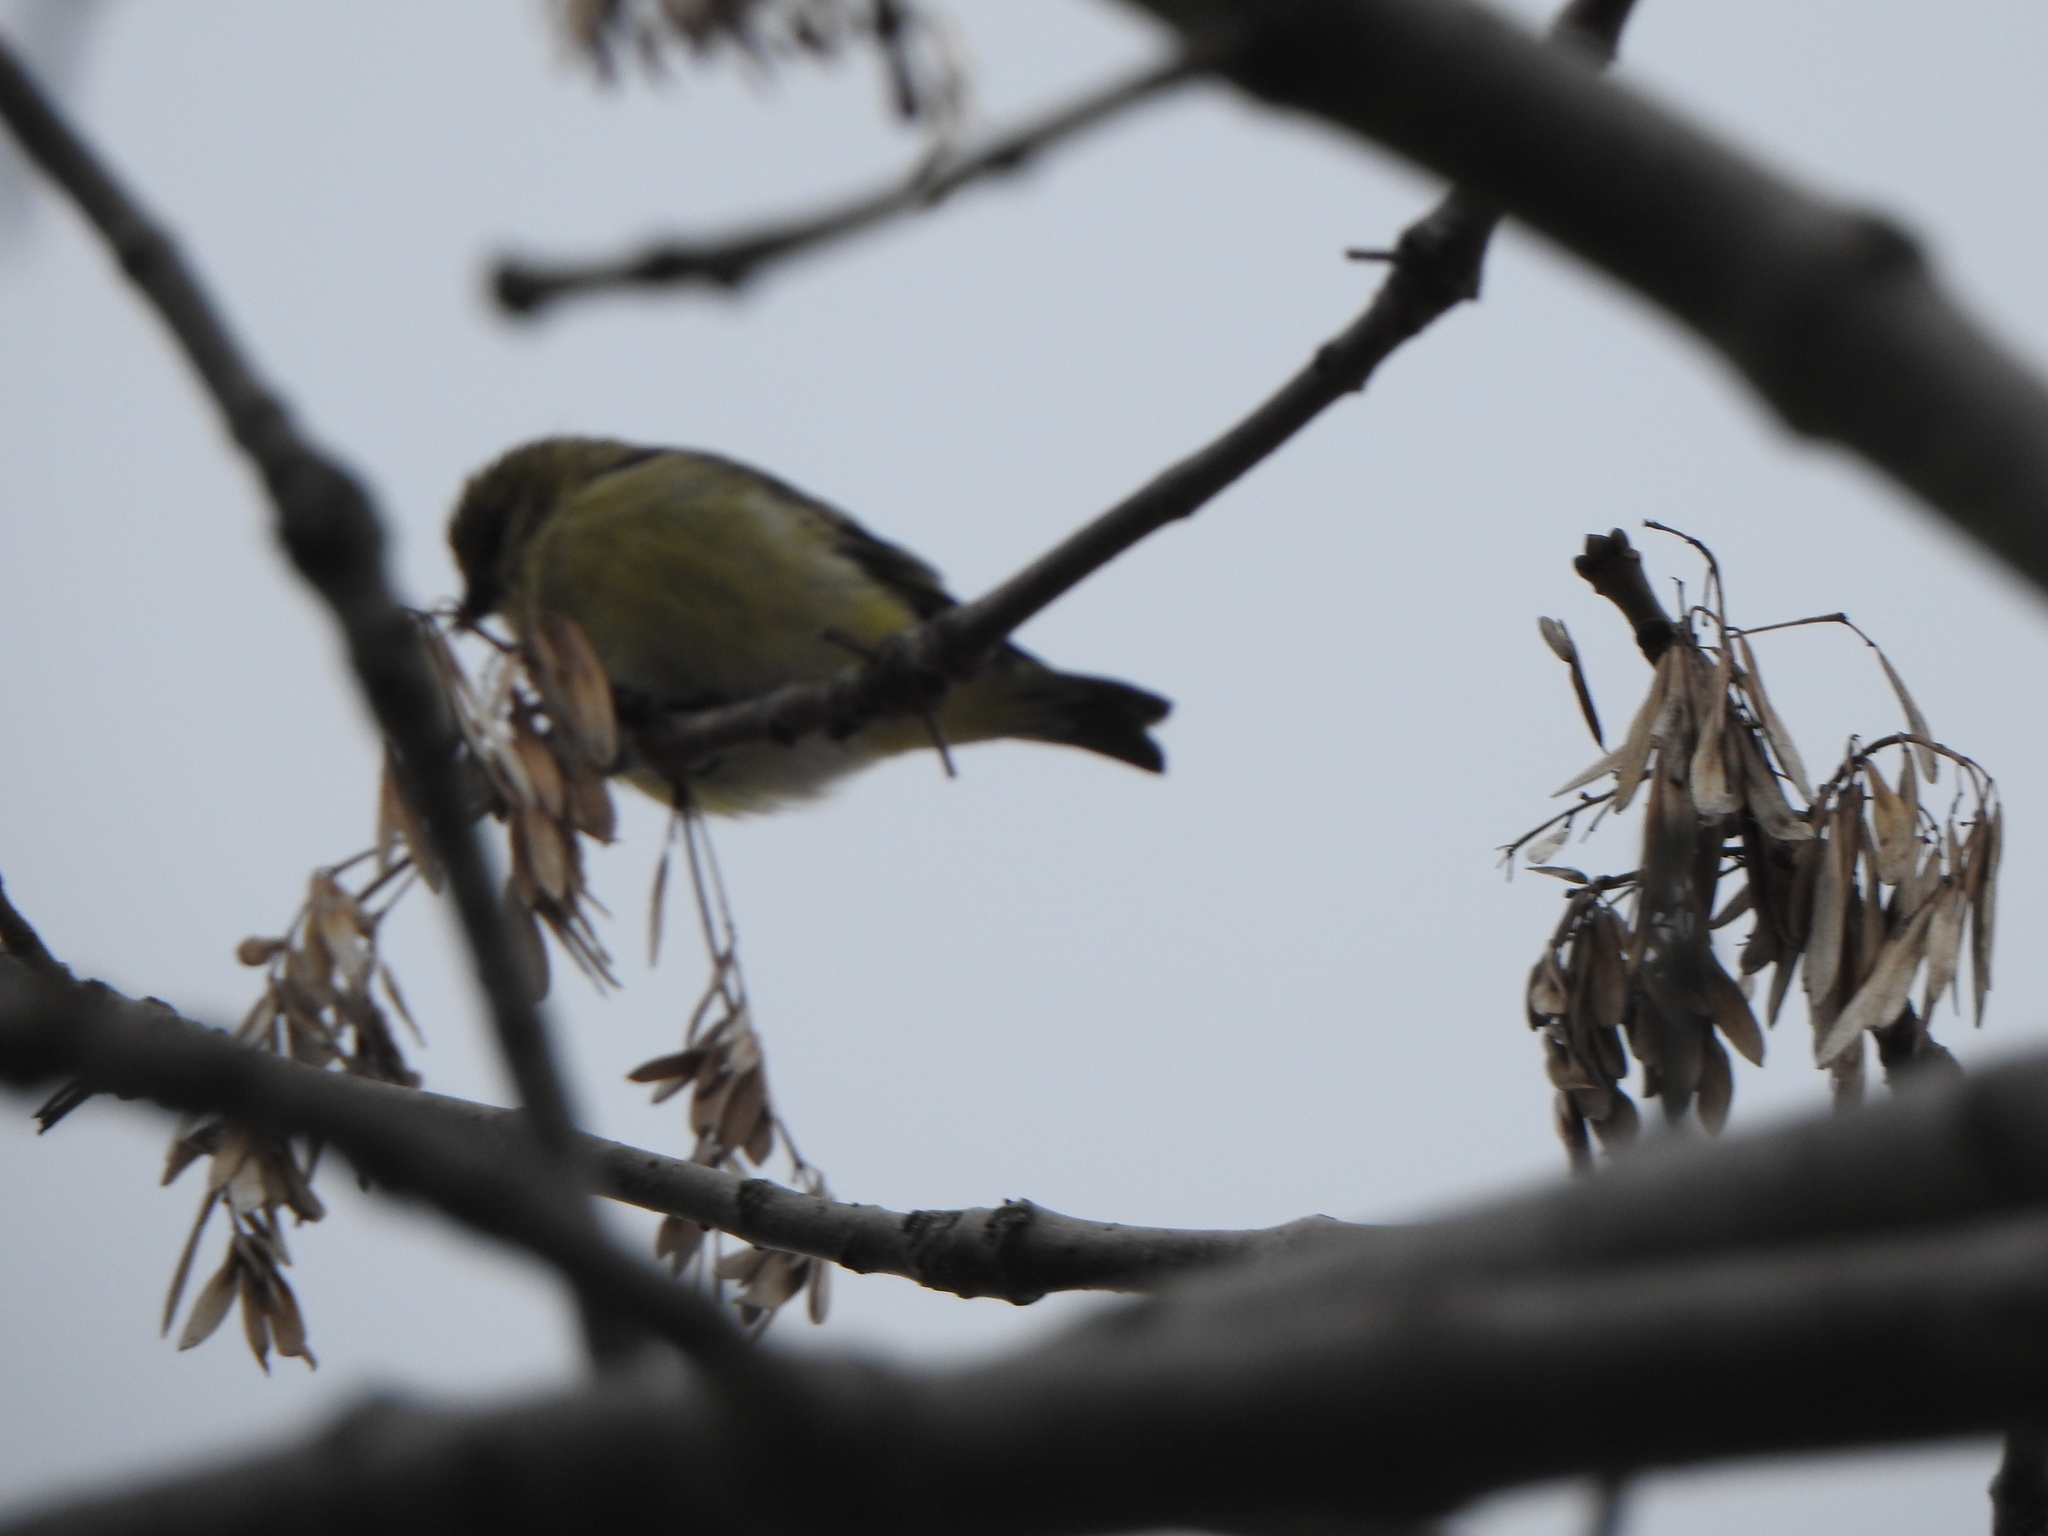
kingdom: Animalia
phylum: Chordata
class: Aves
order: Passeriformes
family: Fringillidae
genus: Spinus
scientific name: Spinus magellanicus
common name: Hooded siskin
